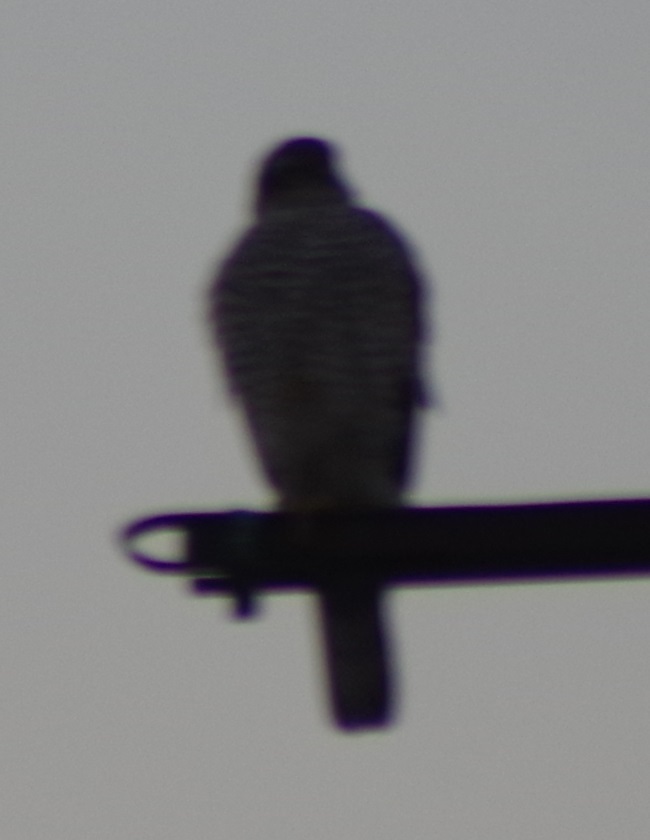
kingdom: Animalia
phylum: Chordata
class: Aves
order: Accipitriformes
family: Accipitridae
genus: Accipiter
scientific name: Accipiter nisus
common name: Eurasian sparrowhawk
